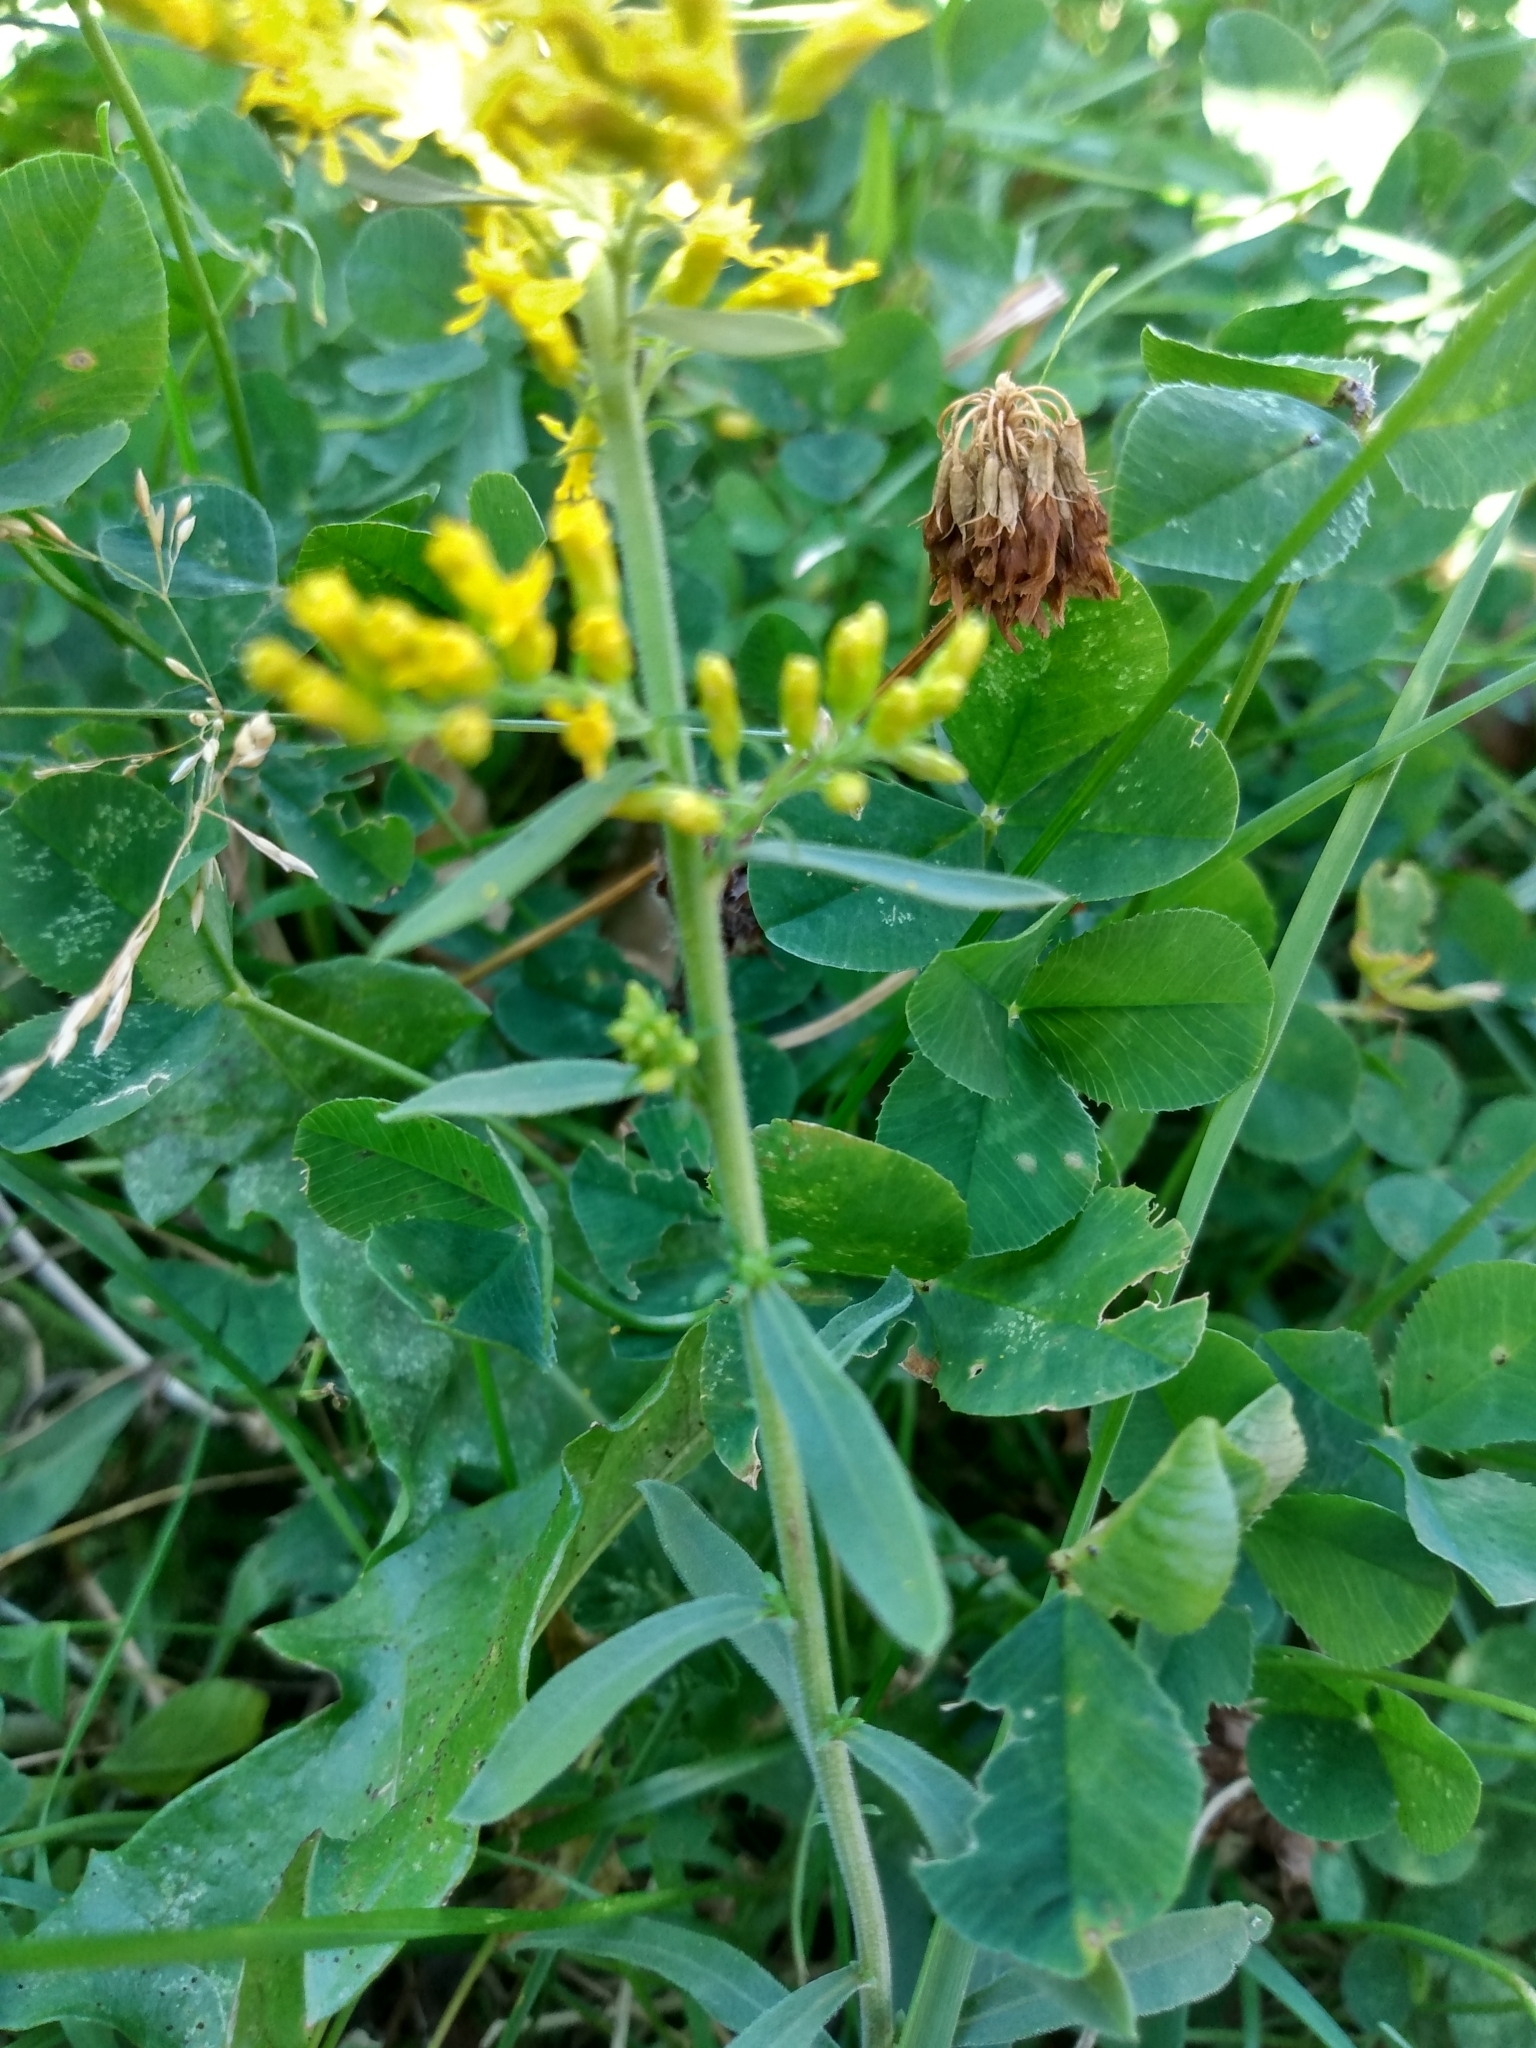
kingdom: Plantae
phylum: Tracheophyta
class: Magnoliopsida
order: Asterales
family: Asteraceae
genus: Solidago
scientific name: Solidago nemoralis
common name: Grey goldenrod
